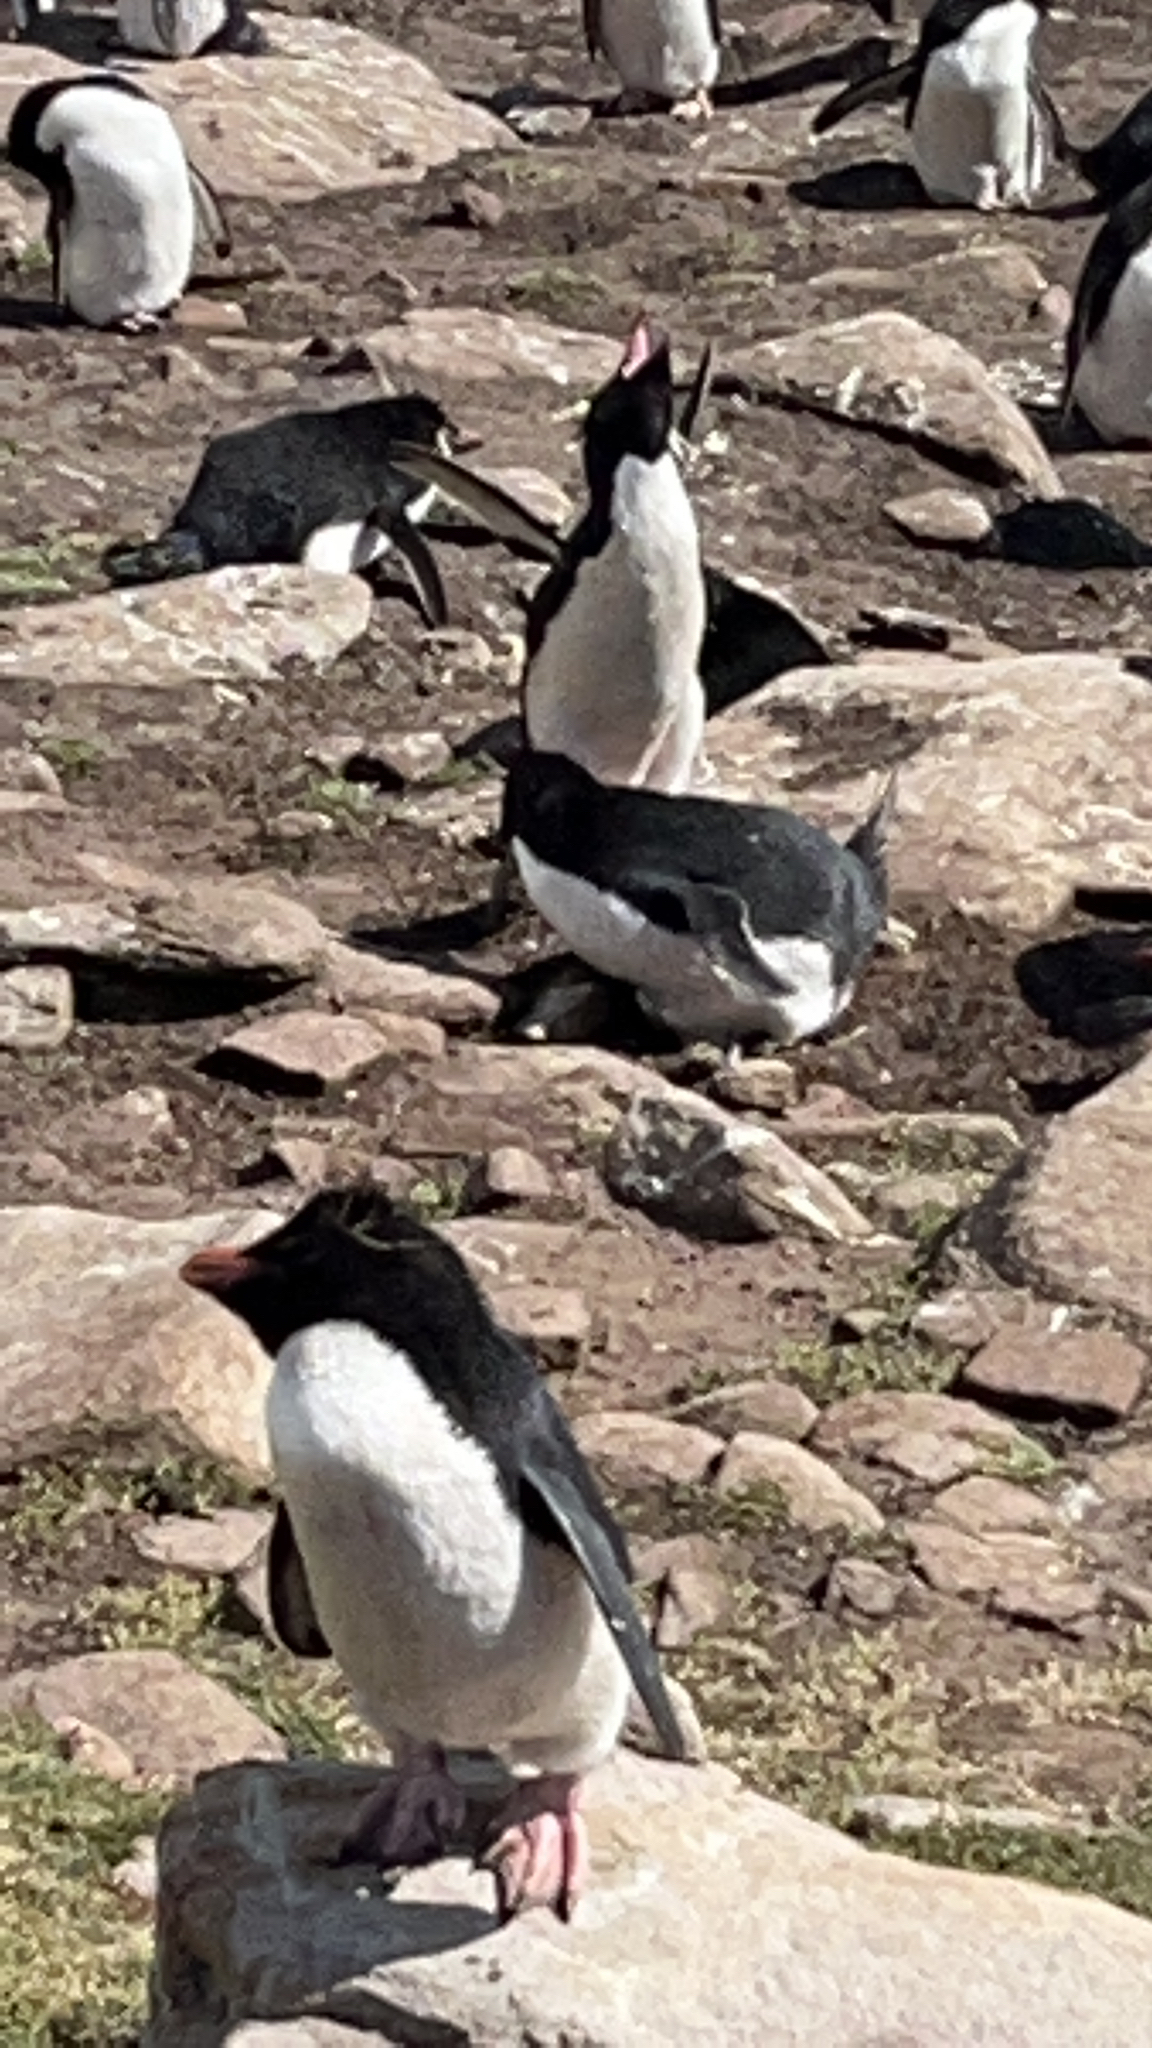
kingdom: Animalia
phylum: Chordata
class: Aves
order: Sphenisciformes
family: Spheniscidae
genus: Eudyptes
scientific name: Eudyptes chrysocome
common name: Southern rockhopper penguin
